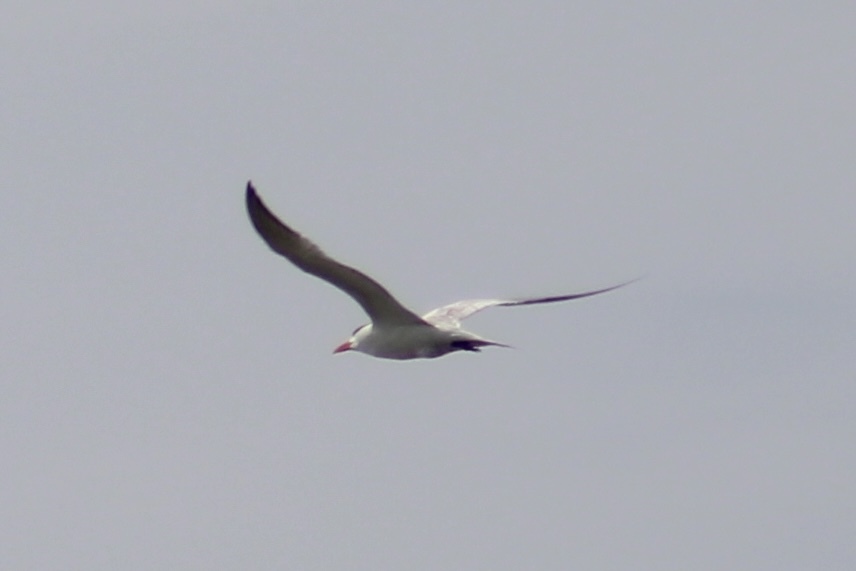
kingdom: Animalia
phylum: Chordata
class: Aves
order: Charadriiformes
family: Laridae
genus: Hydroprogne
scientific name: Hydroprogne caspia
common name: Caspian tern
